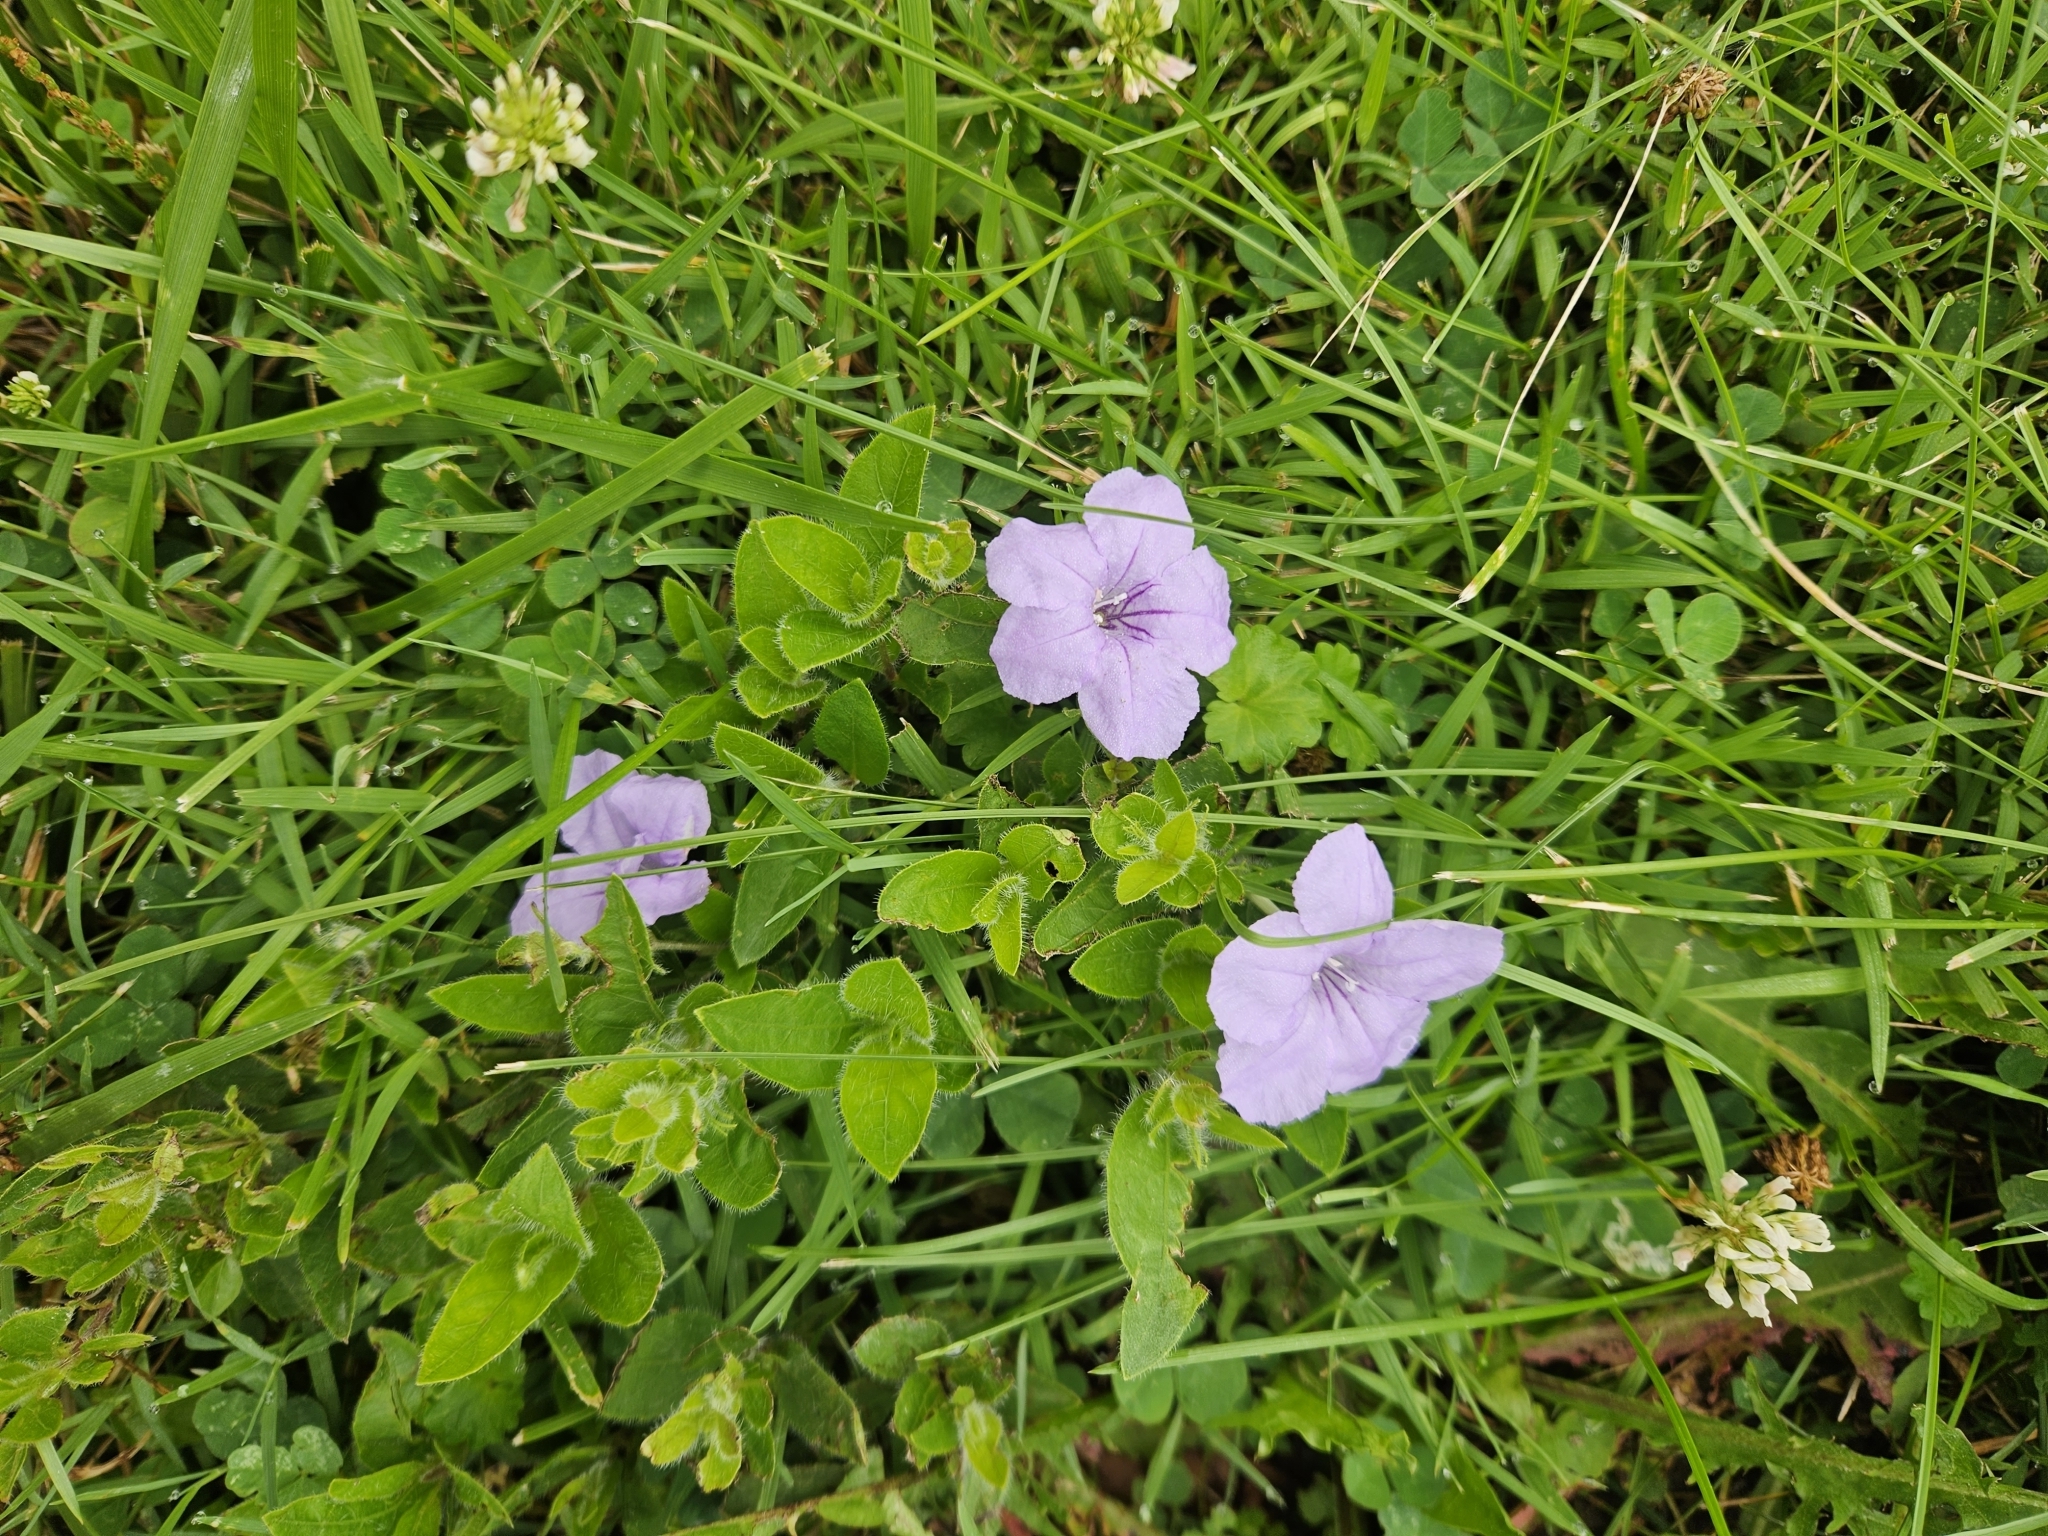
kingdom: Plantae
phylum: Tracheophyta
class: Magnoliopsida
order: Lamiales
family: Acanthaceae
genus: Ruellia
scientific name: Ruellia humilis
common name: Fringe-leaf ruellia
